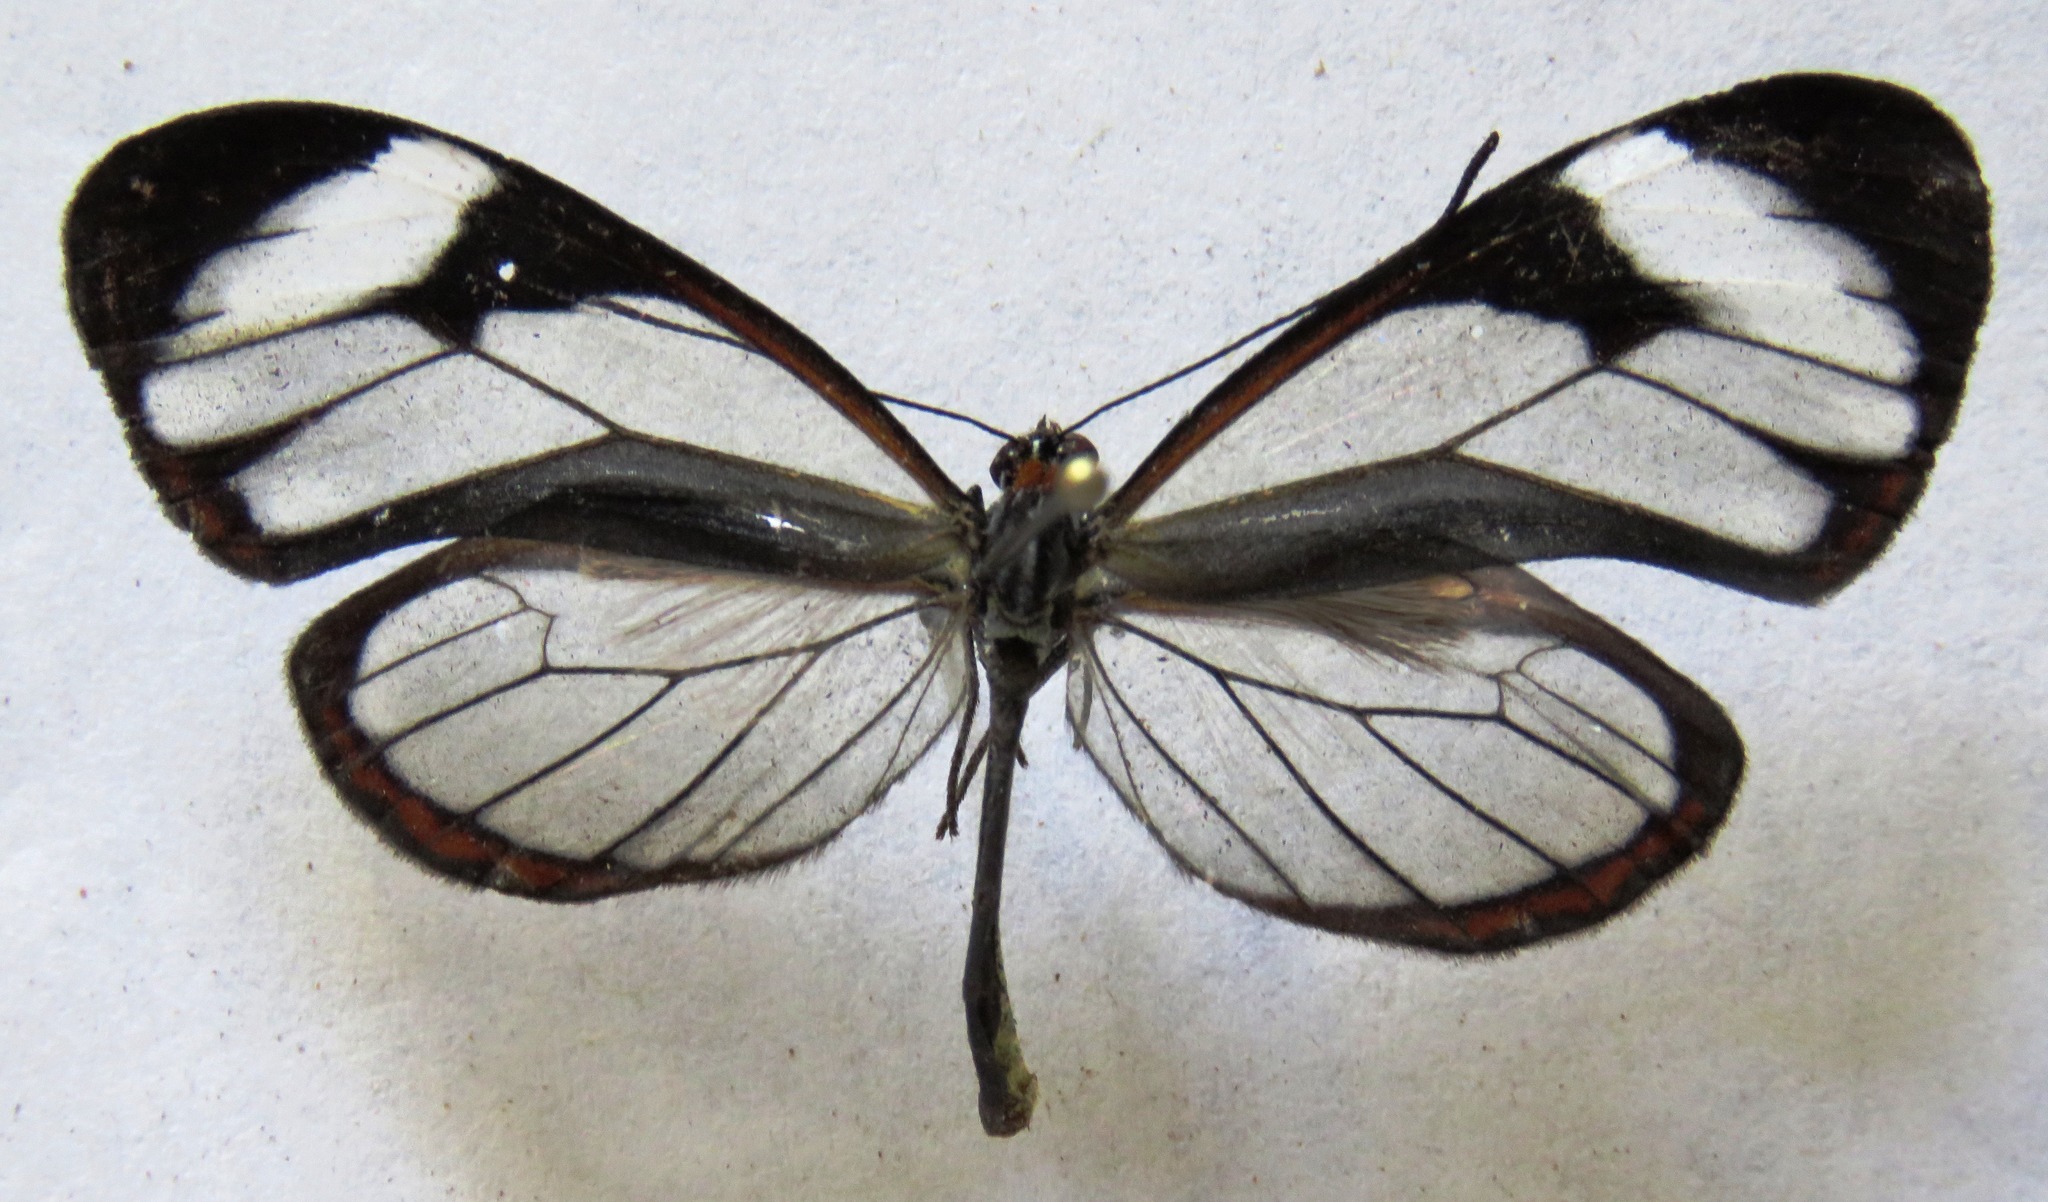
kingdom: Animalia
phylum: Arthropoda
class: Insecta
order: Lepidoptera
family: Nymphalidae
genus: Ithomia
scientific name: Ithomia patilla
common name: Patilla clearwing
